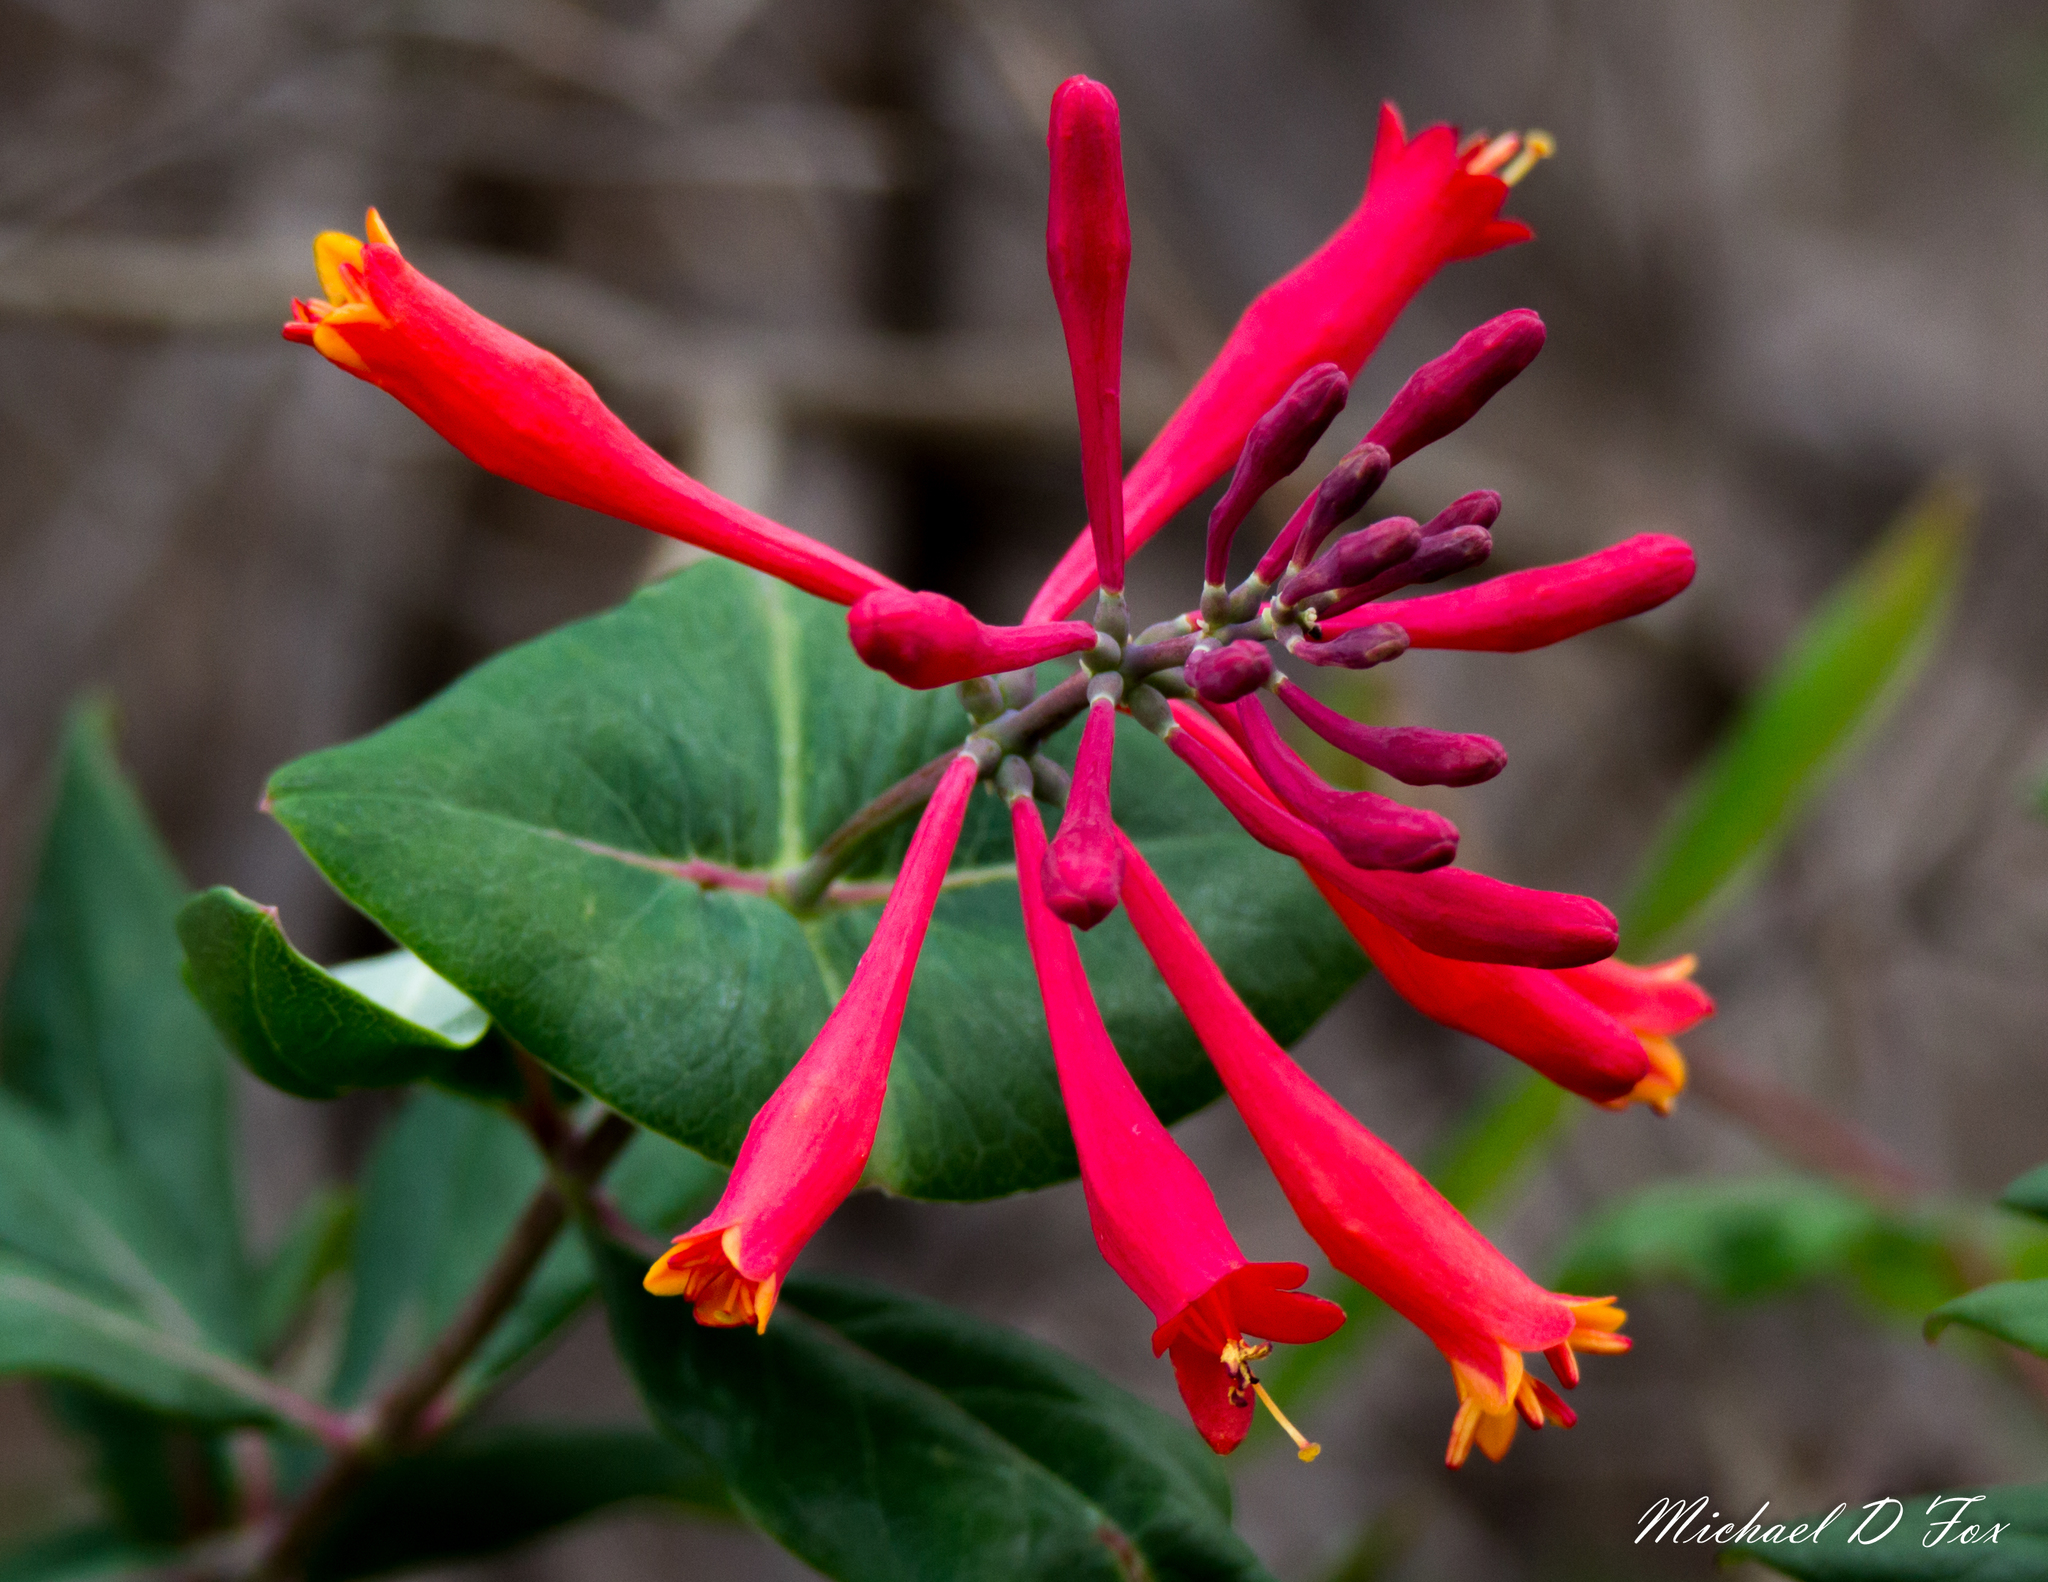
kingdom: Plantae
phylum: Tracheophyta
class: Magnoliopsida
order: Dipsacales
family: Caprifoliaceae
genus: Lonicera
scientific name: Lonicera sempervirens
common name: Coral honeysuckle
